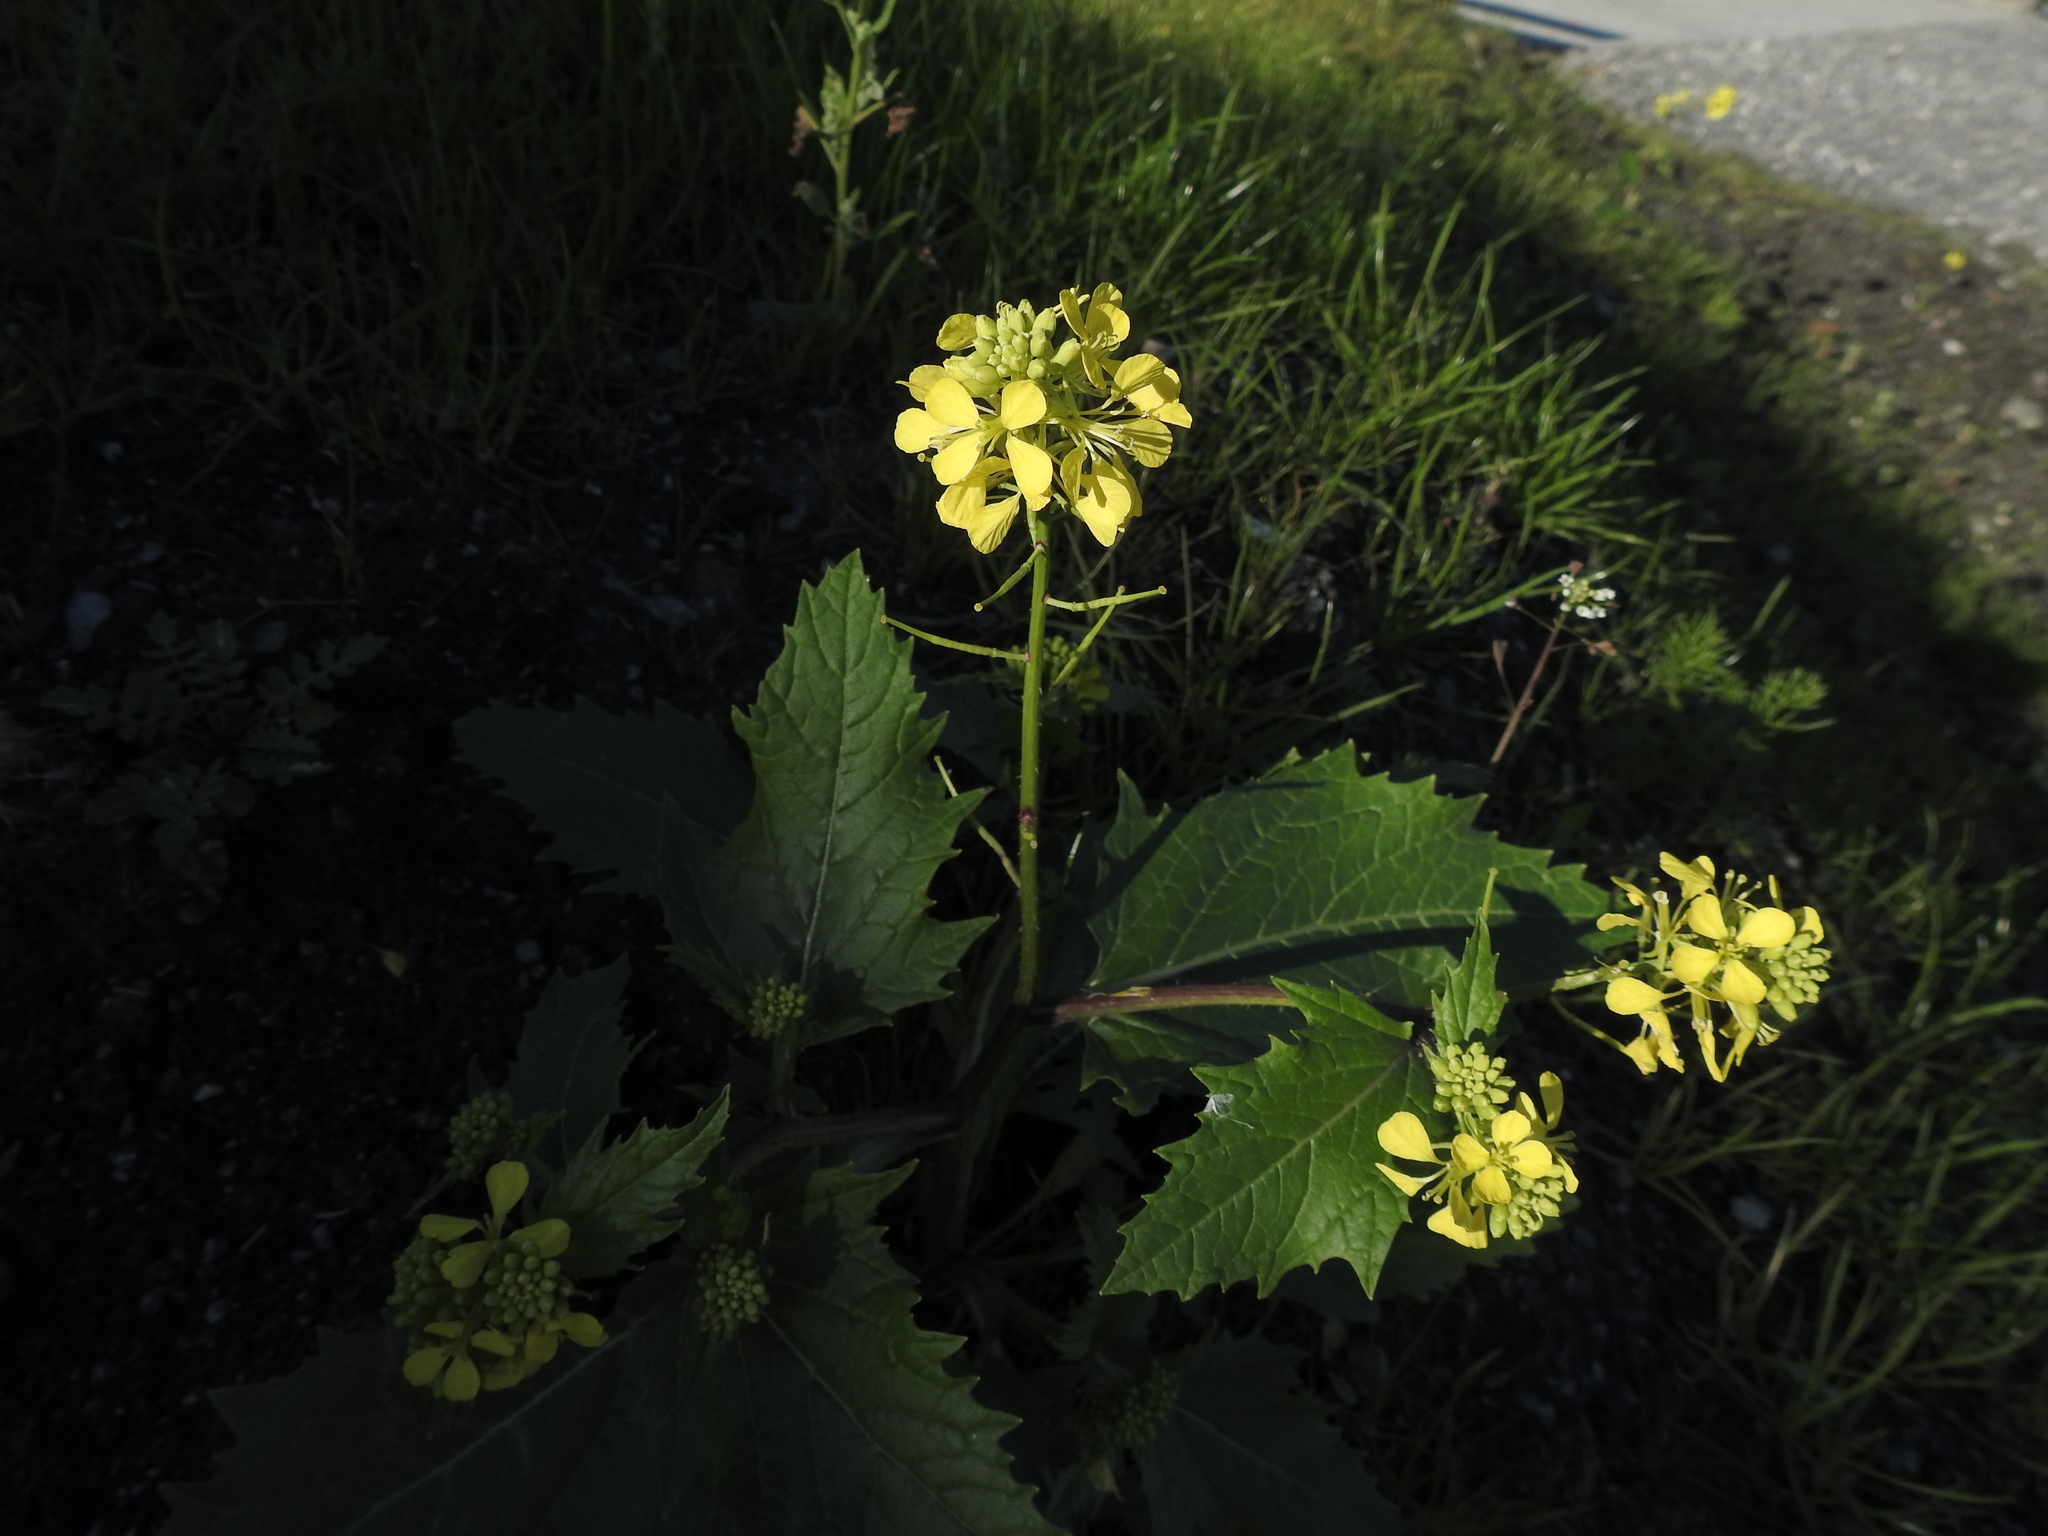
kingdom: Plantae
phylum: Tracheophyta
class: Magnoliopsida
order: Brassicales
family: Brassicaceae
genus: Sinapis
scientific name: Sinapis arvensis
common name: Charlock
